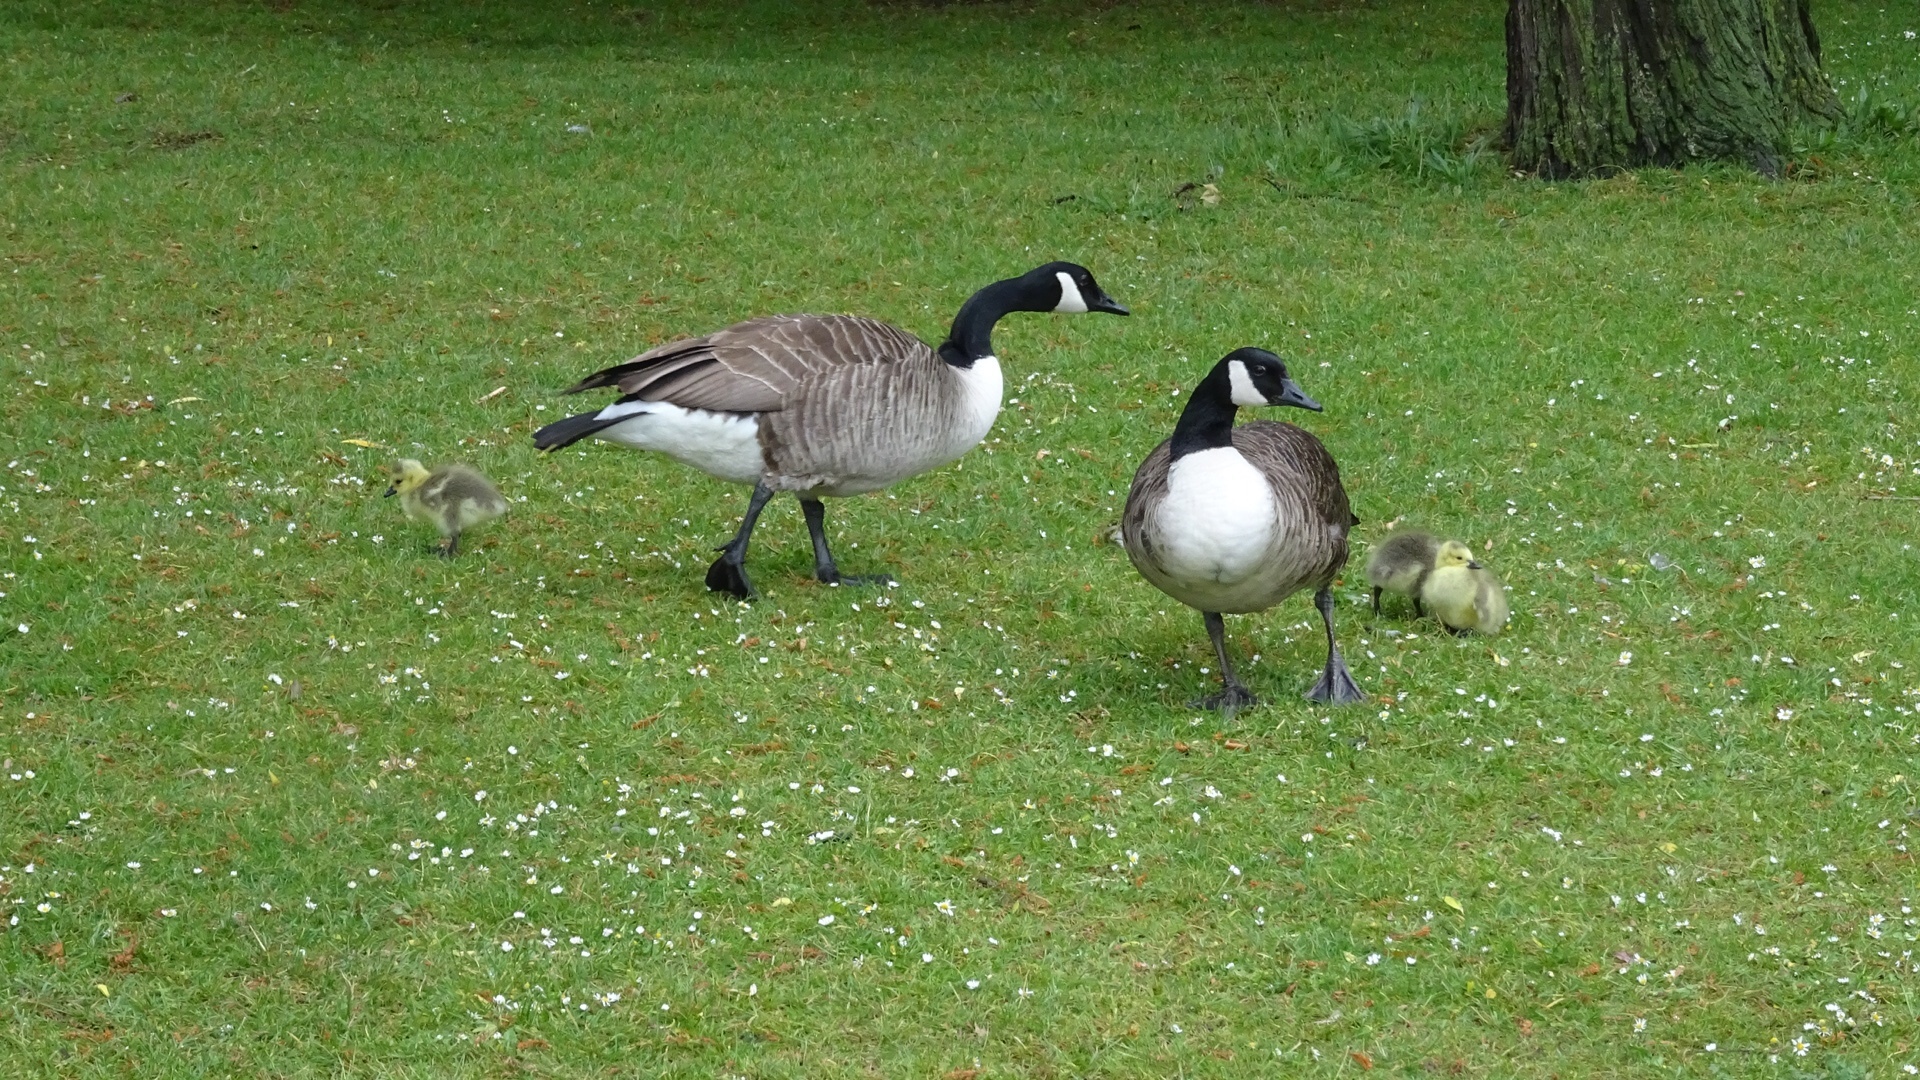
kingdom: Animalia
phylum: Chordata
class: Aves
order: Anseriformes
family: Anatidae
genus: Branta
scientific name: Branta canadensis
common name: Canada goose
